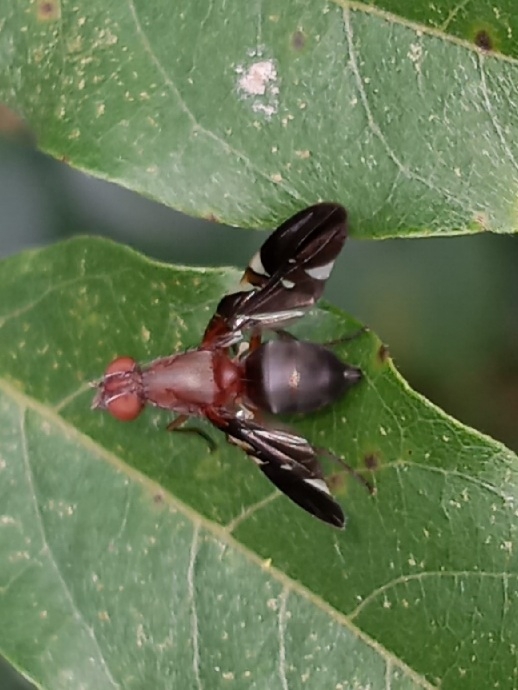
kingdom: Animalia
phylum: Arthropoda
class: Insecta
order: Diptera
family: Ulidiidae
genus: Delphinia
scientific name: Delphinia picta
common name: Common picture-winged fly
